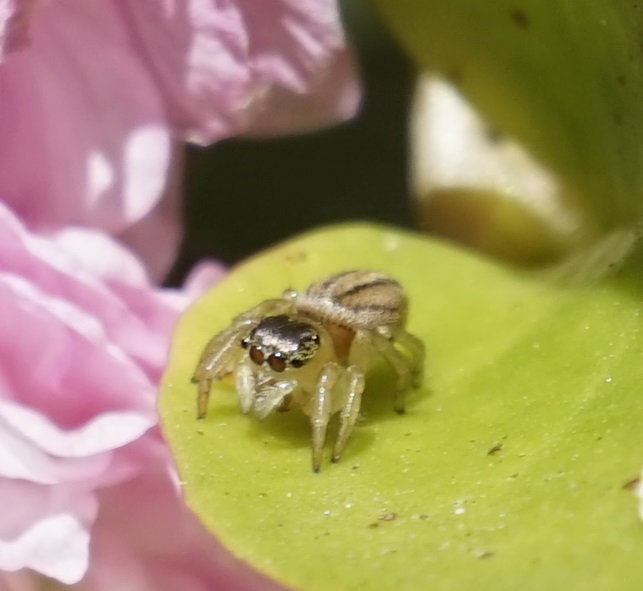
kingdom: Animalia
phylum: Arthropoda
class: Arachnida
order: Araneae
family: Salticidae
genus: Maratus
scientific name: Maratus scutulatus
